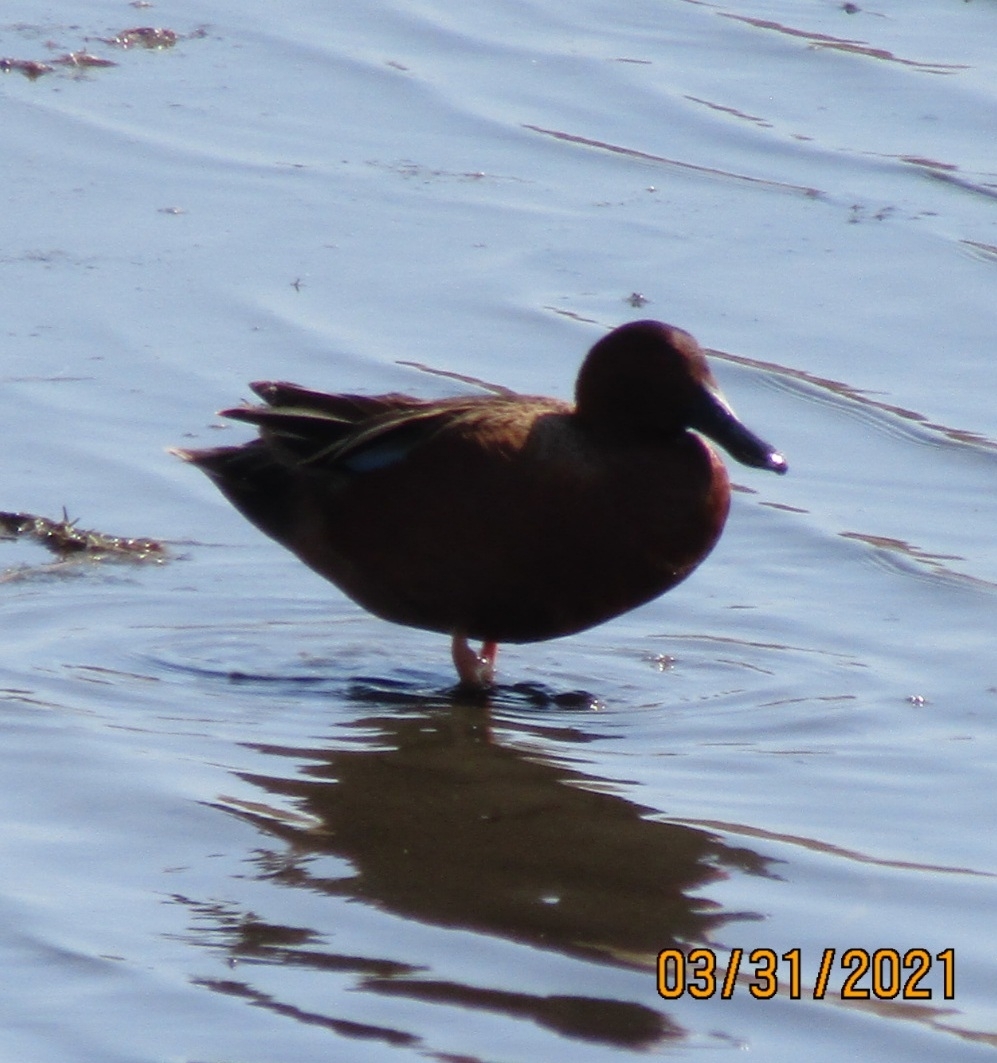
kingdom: Animalia
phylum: Chordata
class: Aves
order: Anseriformes
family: Anatidae
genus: Spatula
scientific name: Spatula cyanoptera
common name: Cinnamon teal
